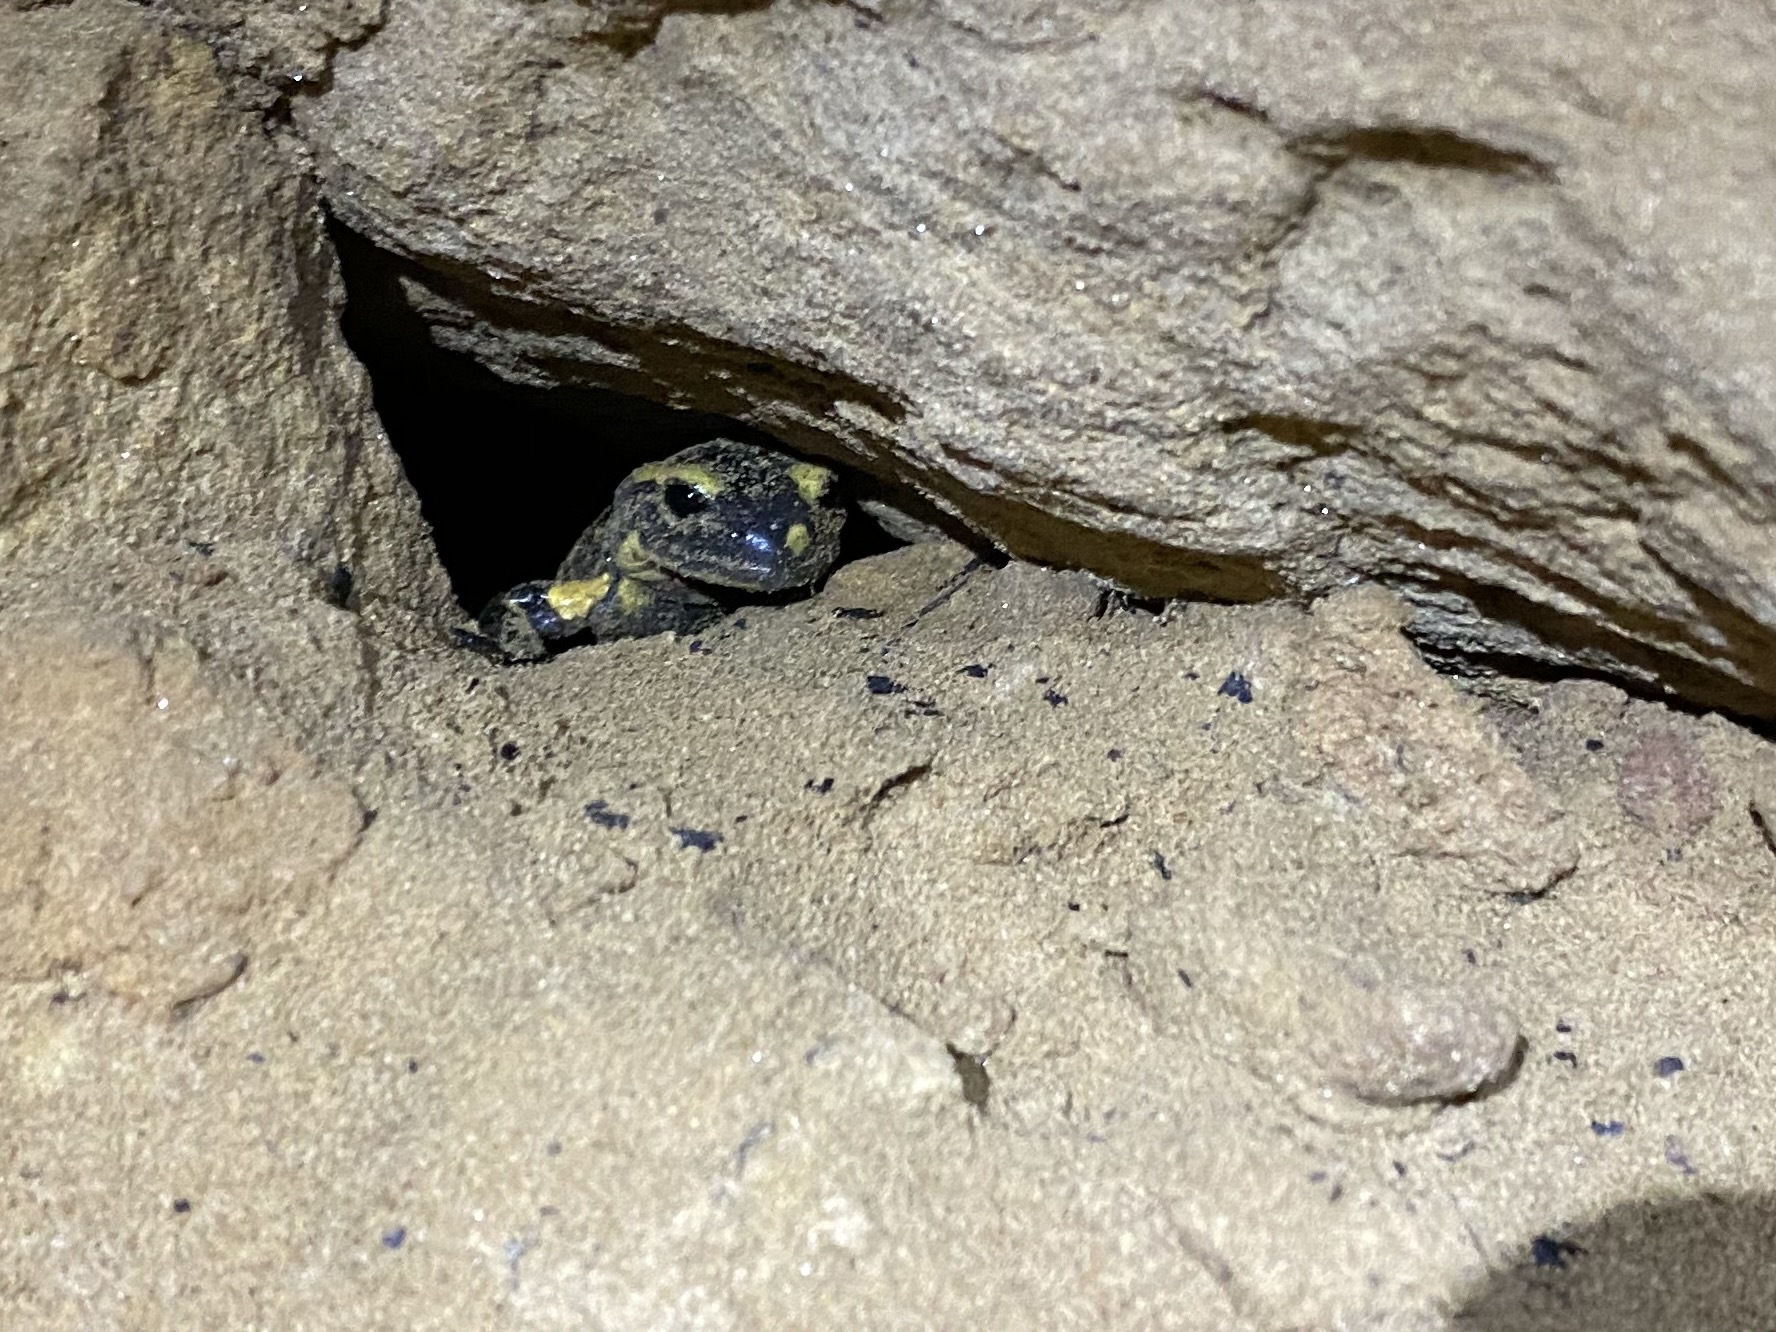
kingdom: Animalia
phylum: Chordata
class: Amphibia
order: Caudata
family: Salamandridae
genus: Salamandra
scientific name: Salamandra salamandra
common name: Fire salamander
